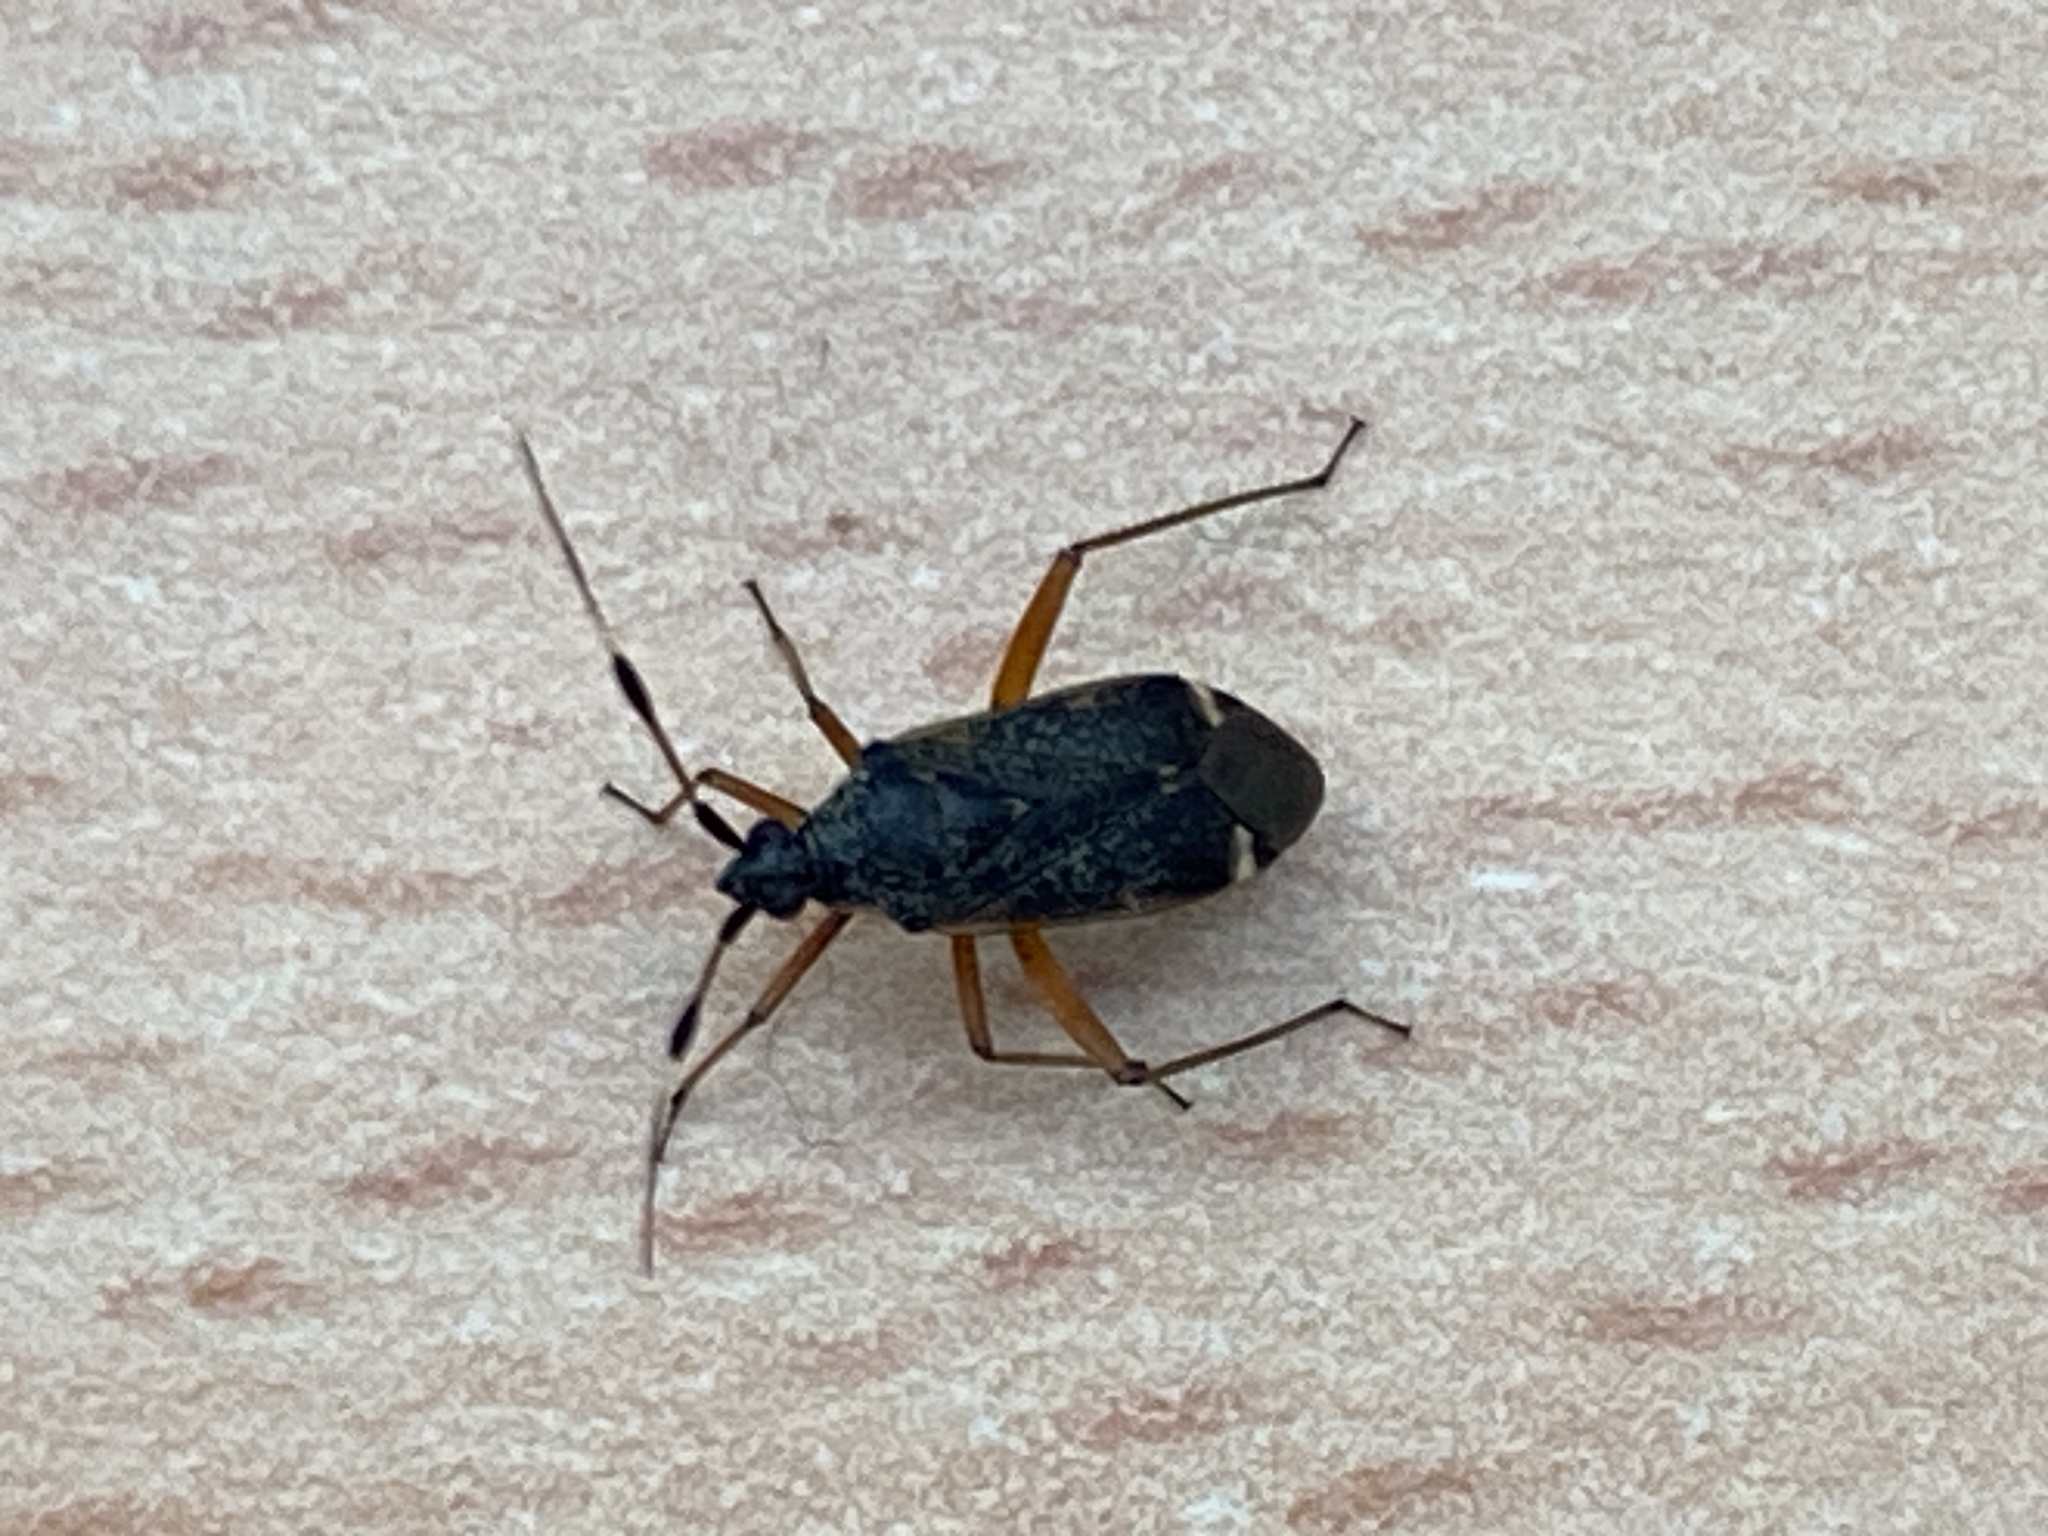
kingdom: Animalia
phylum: Arthropoda
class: Insecta
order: Hemiptera
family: Miridae
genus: Closterotomus
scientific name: Closterotomus biclavatus
